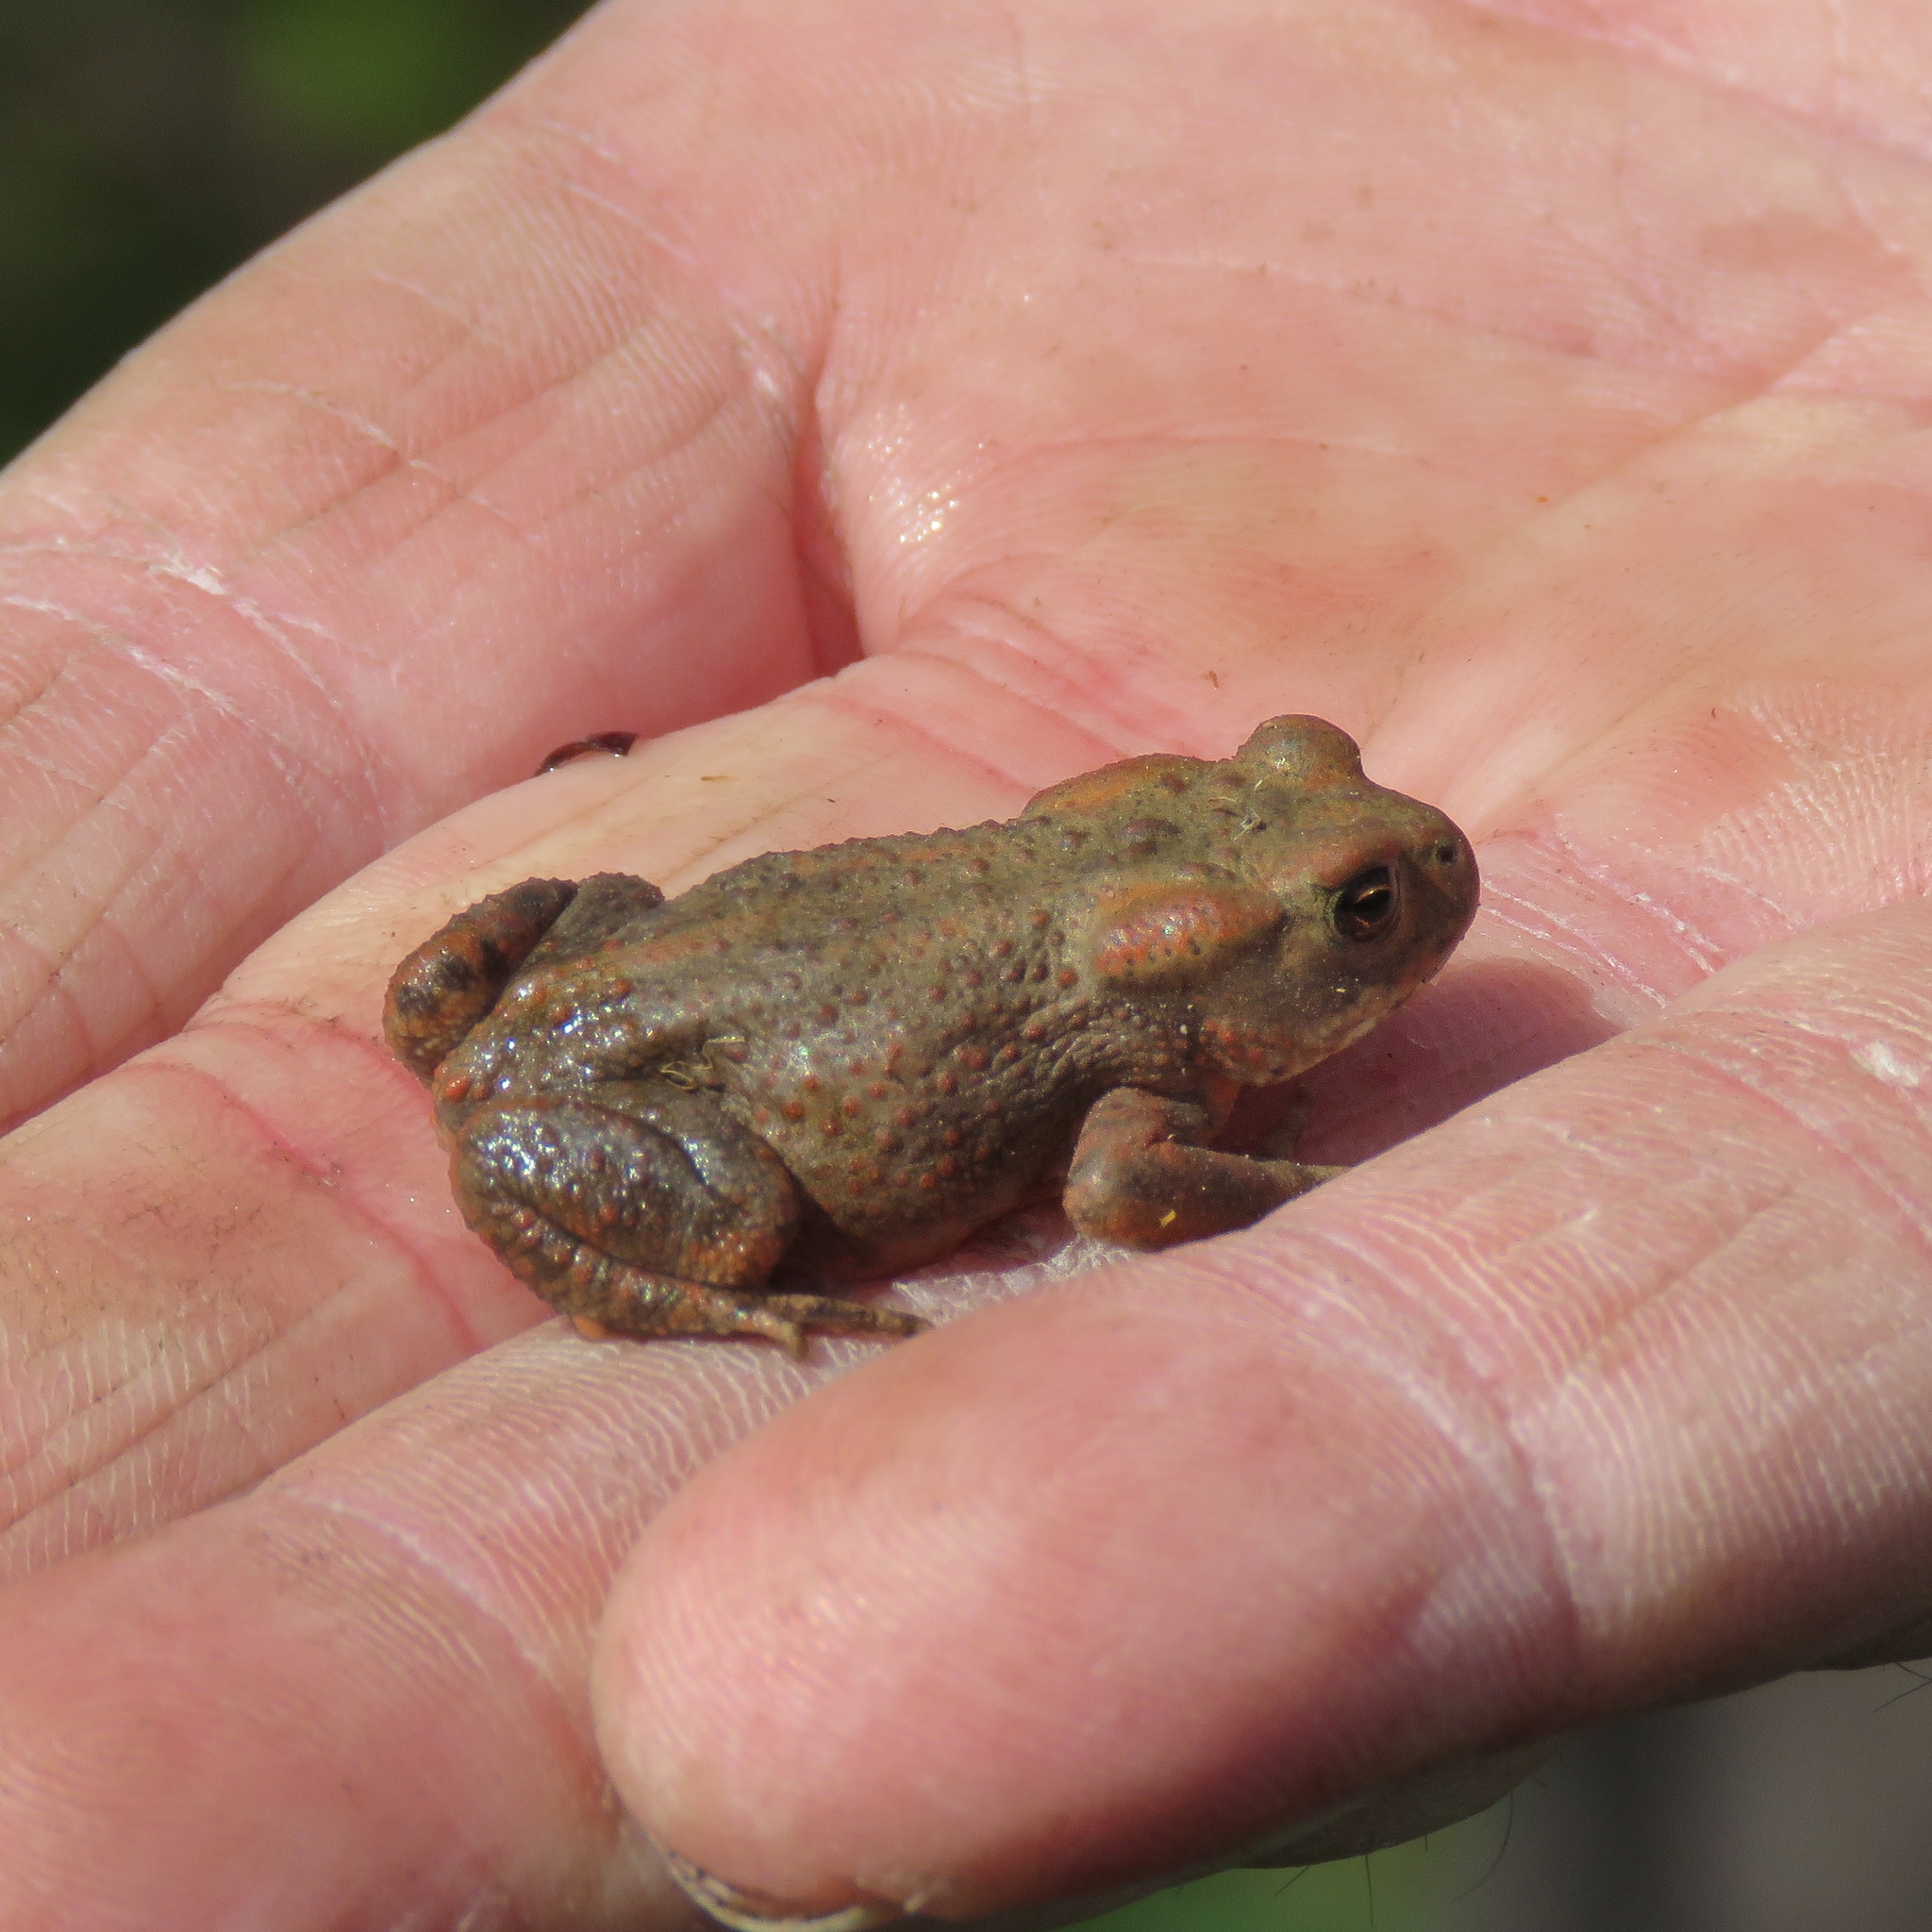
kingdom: Animalia
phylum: Chordata
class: Amphibia
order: Anura
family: Bufonidae
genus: Bufo
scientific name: Bufo bufo
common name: Common toad
